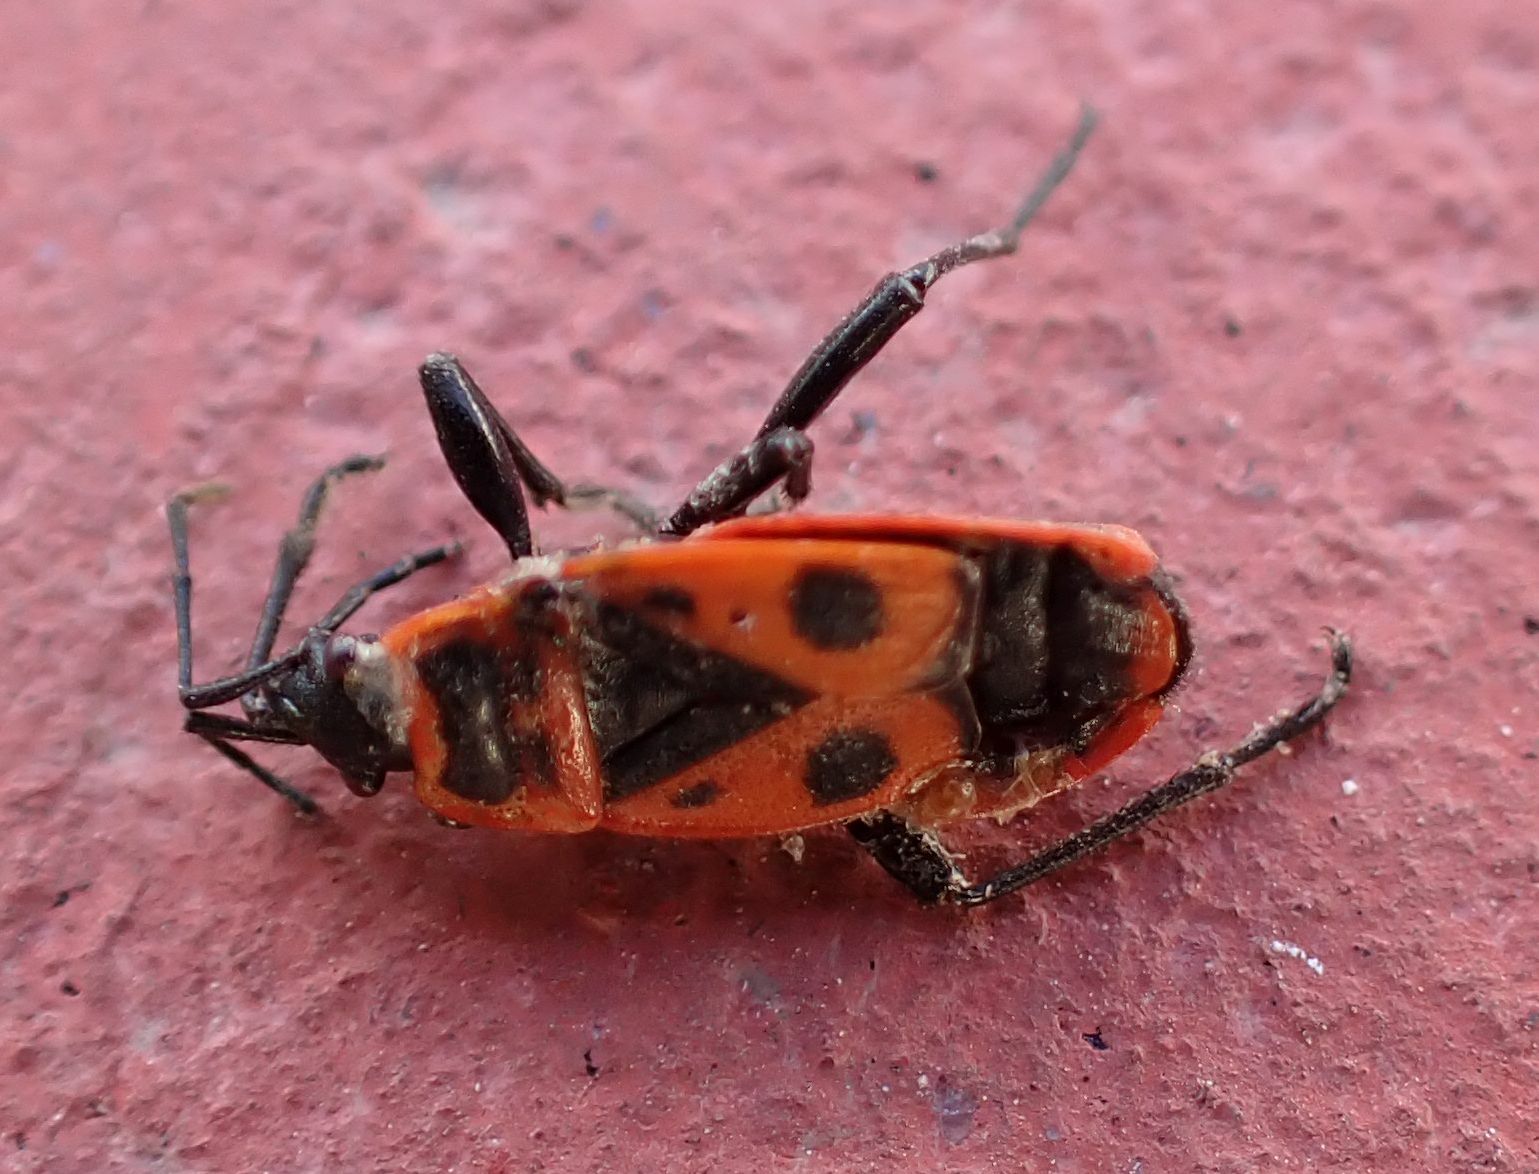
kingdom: Animalia
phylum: Arthropoda
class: Insecta
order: Hemiptera
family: Pyrrhocoridae
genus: Pyrrhocoris
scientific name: Pyrrhocoris apterus
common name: Firebug
